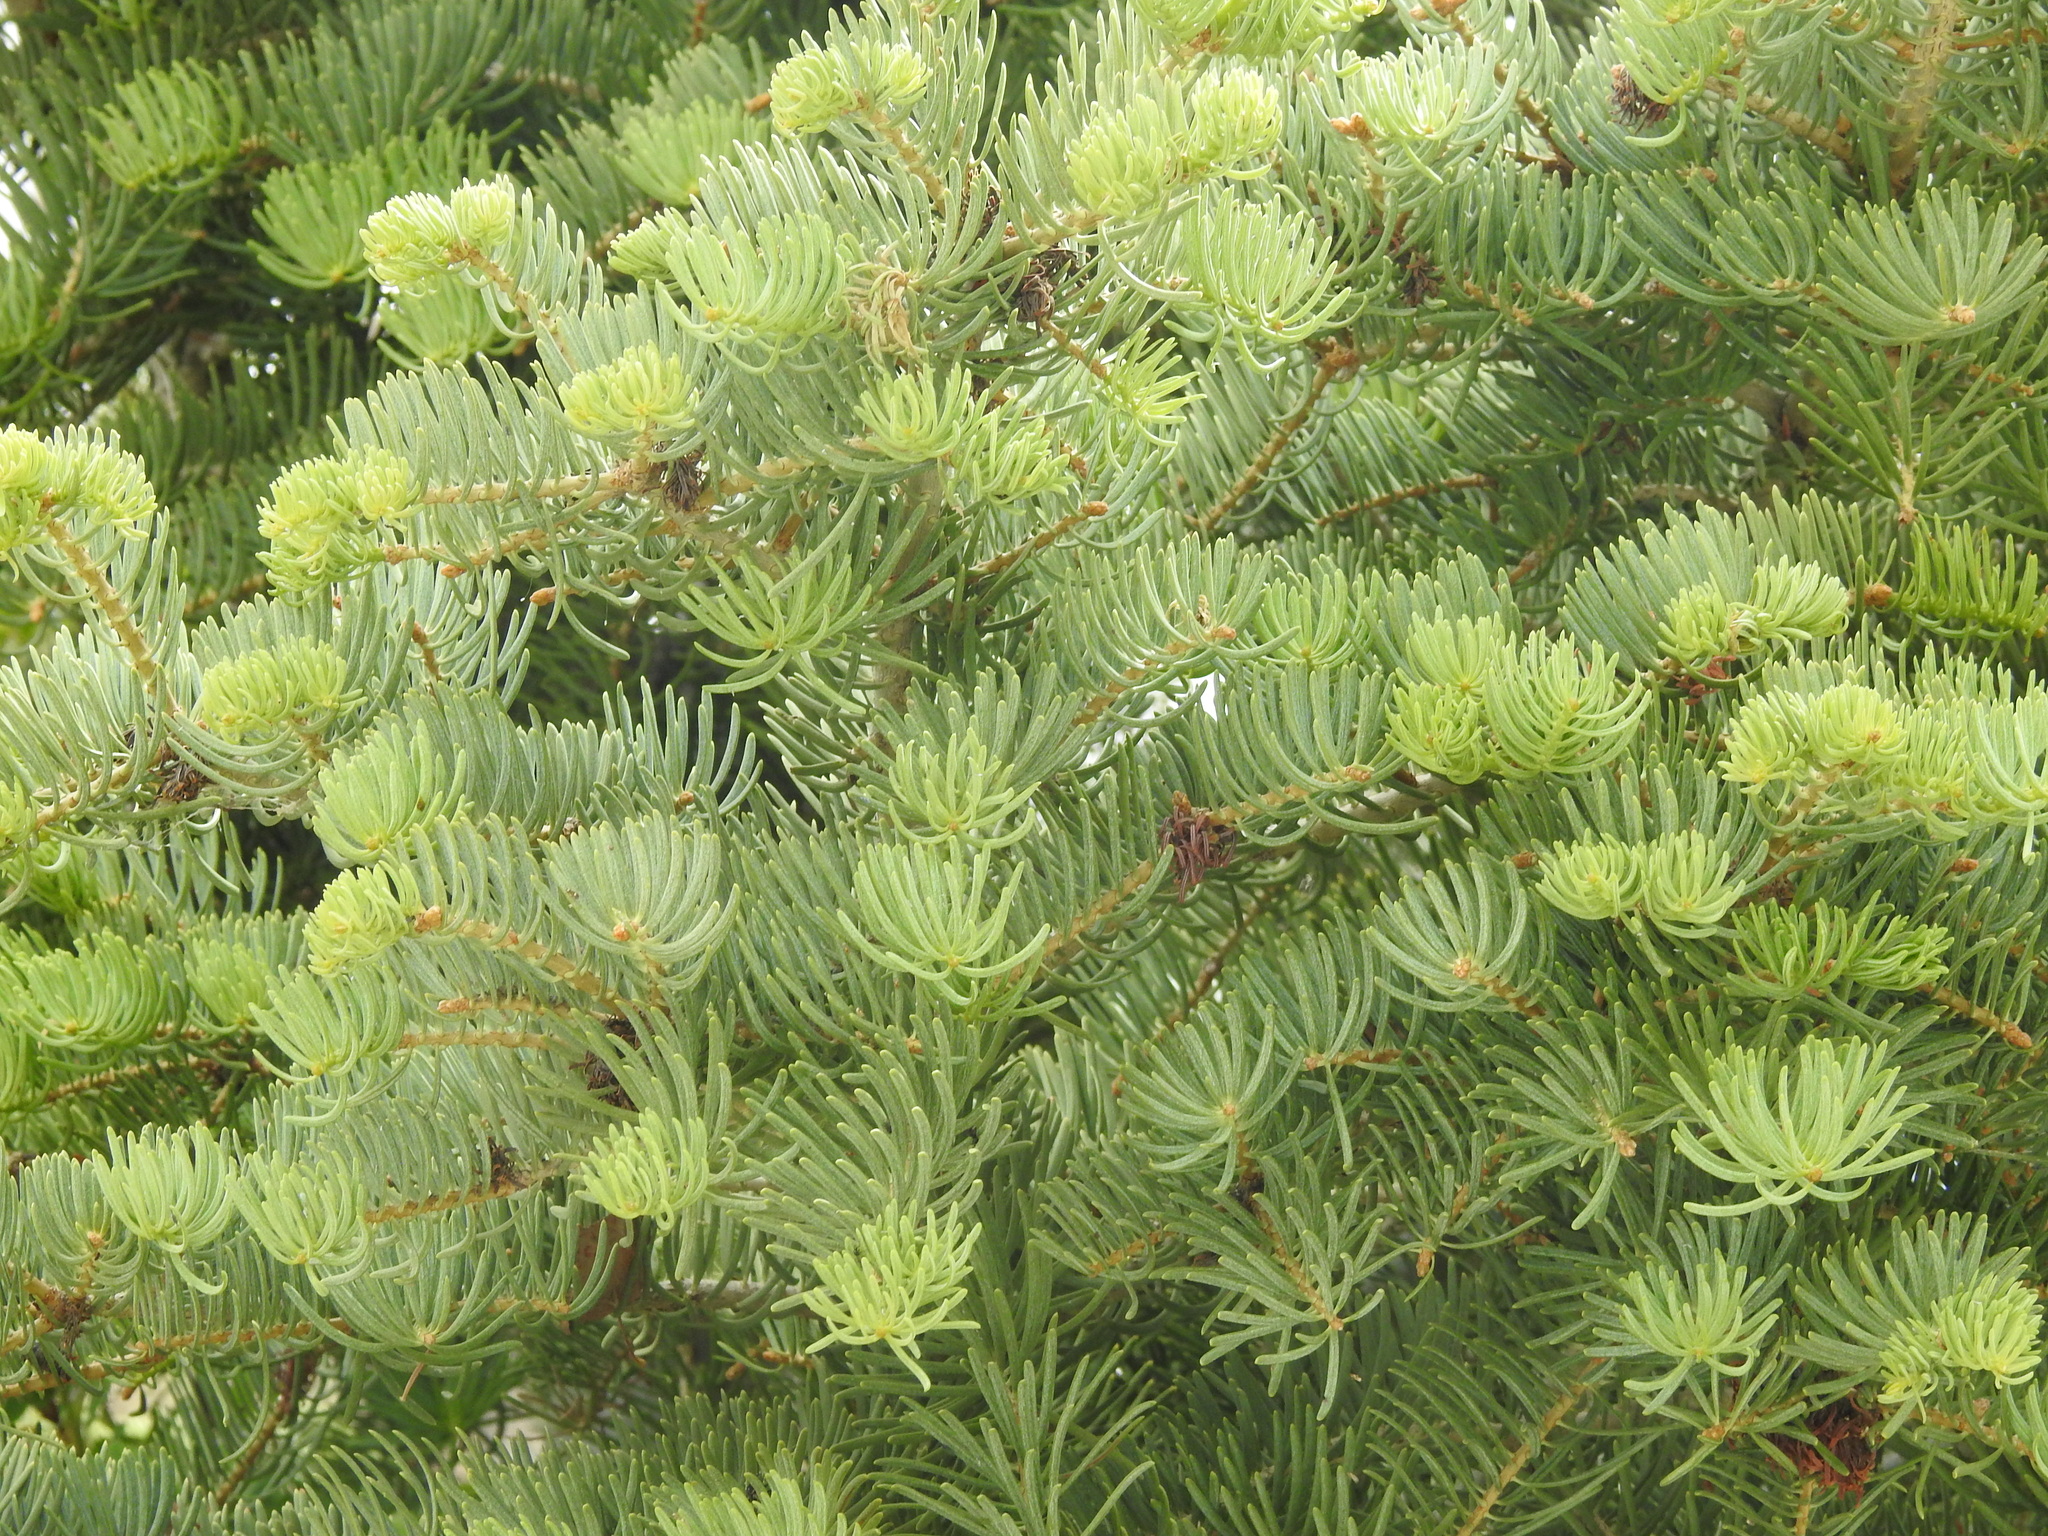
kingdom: Plantae
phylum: Tracheophyta
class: Pinopsida
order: Pinales
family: Pinaceae
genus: Abies
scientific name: Abies concolor
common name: Colorado fir
